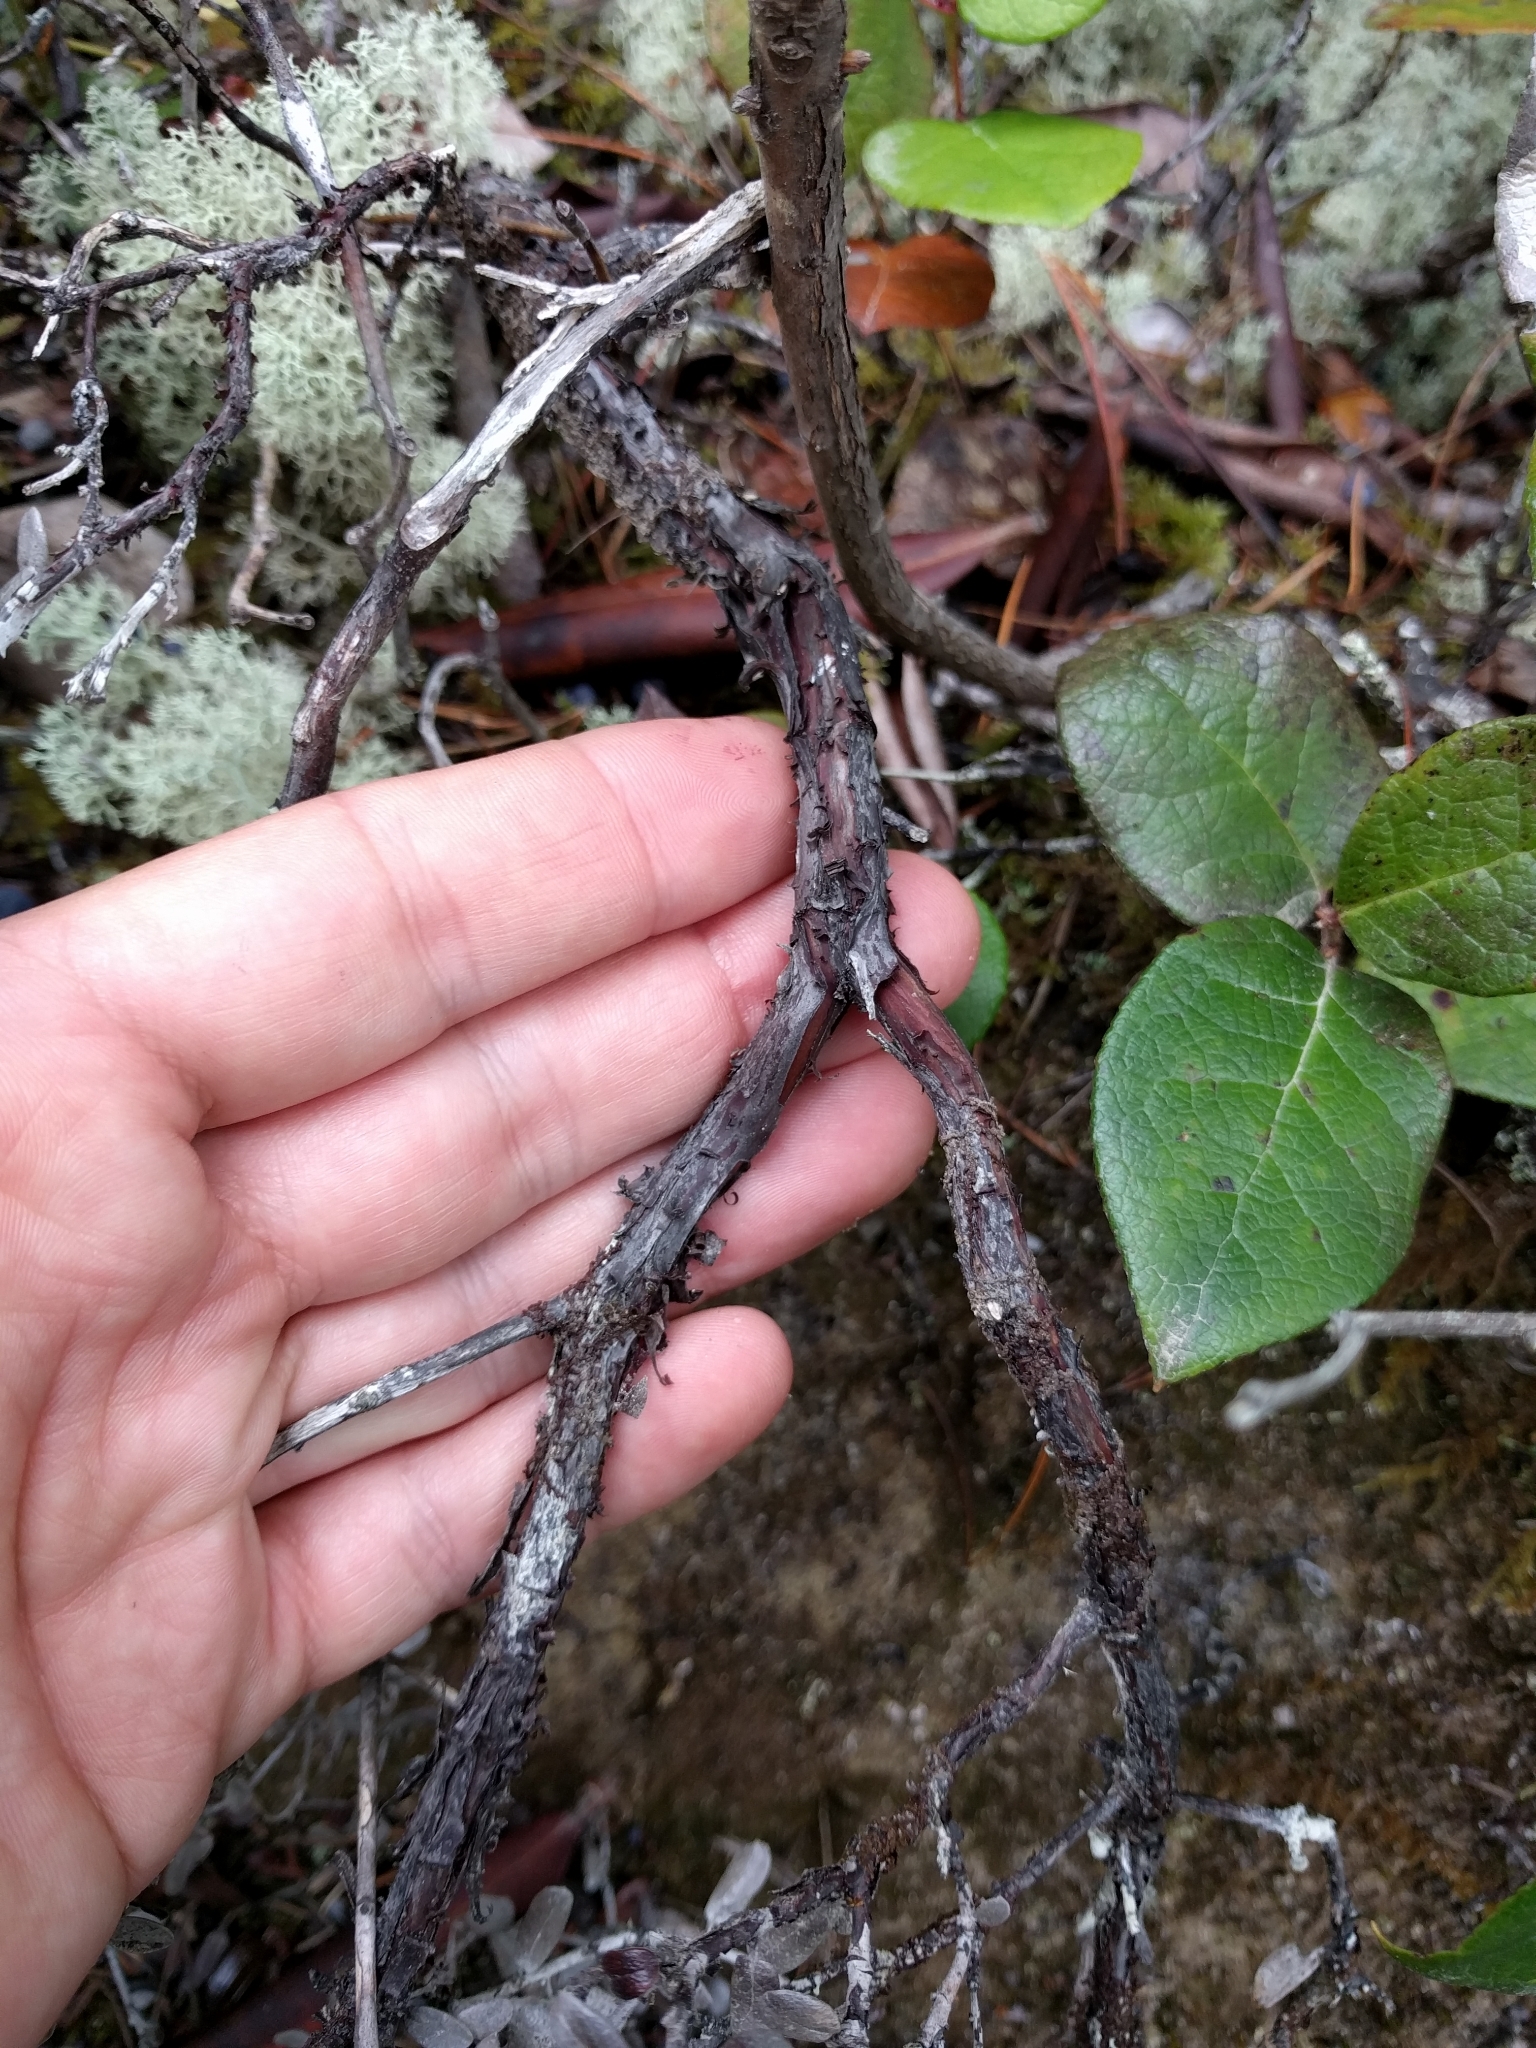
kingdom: Plantae
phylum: Tracheophyta
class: Magnoliopsida
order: Ericales
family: Ericaceae
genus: Arctostaphylos
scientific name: Arctostaphylos nummularia
